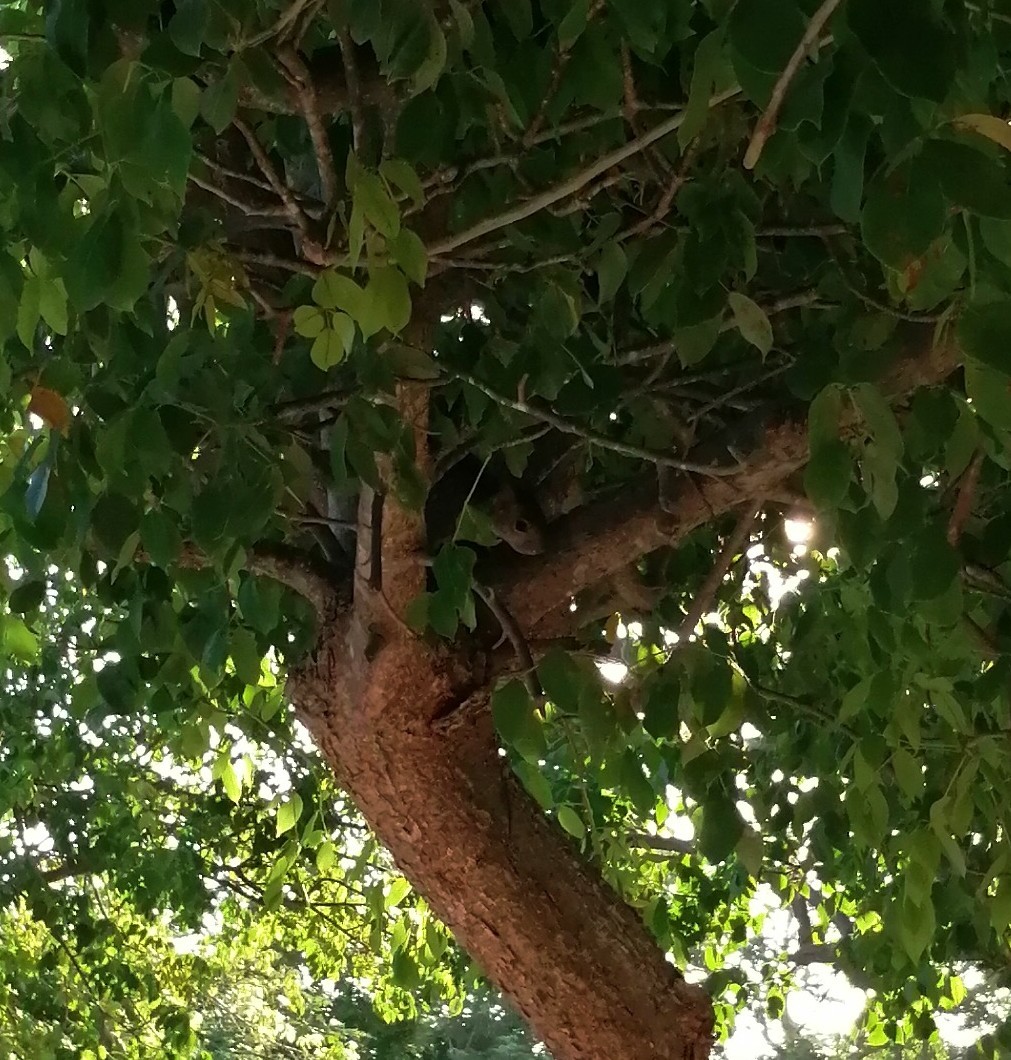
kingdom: Animalia
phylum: Chordata
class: Mammalia
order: Rodentia
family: Sciuridae
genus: Sciurus
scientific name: Sciurus yucatanensis
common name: Yucatan squirrel
